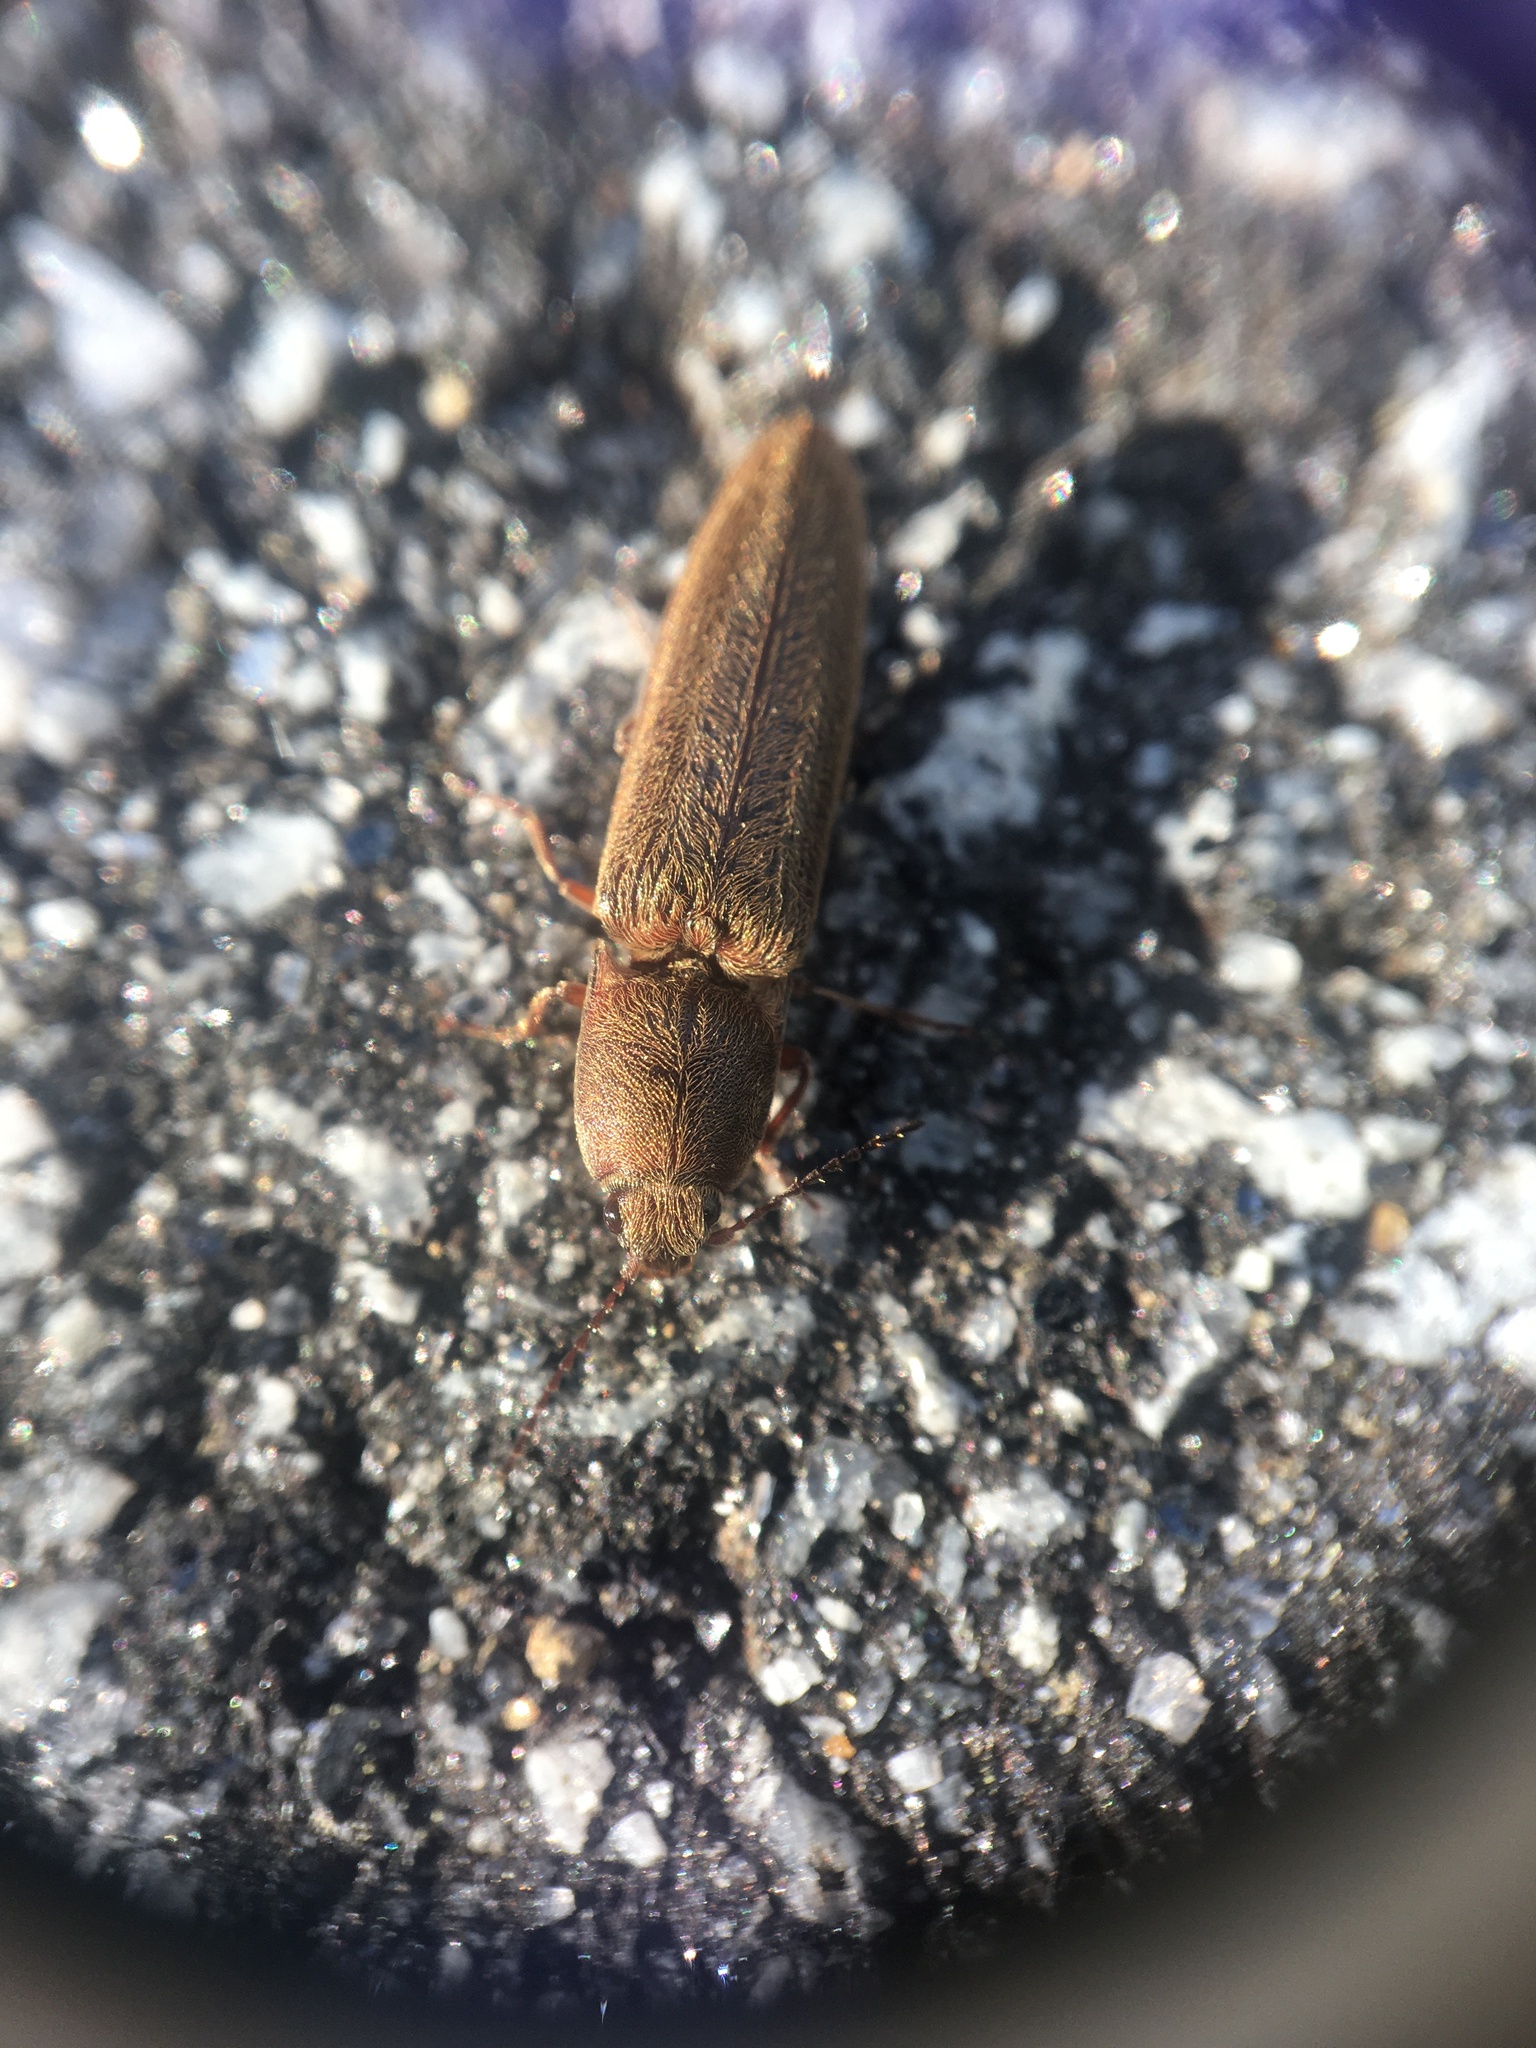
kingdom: Animalia
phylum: Arthropoda
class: Insecta
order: Coleoptera
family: Elateridae
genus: Gambrinus
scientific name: Gambrinus griseus
